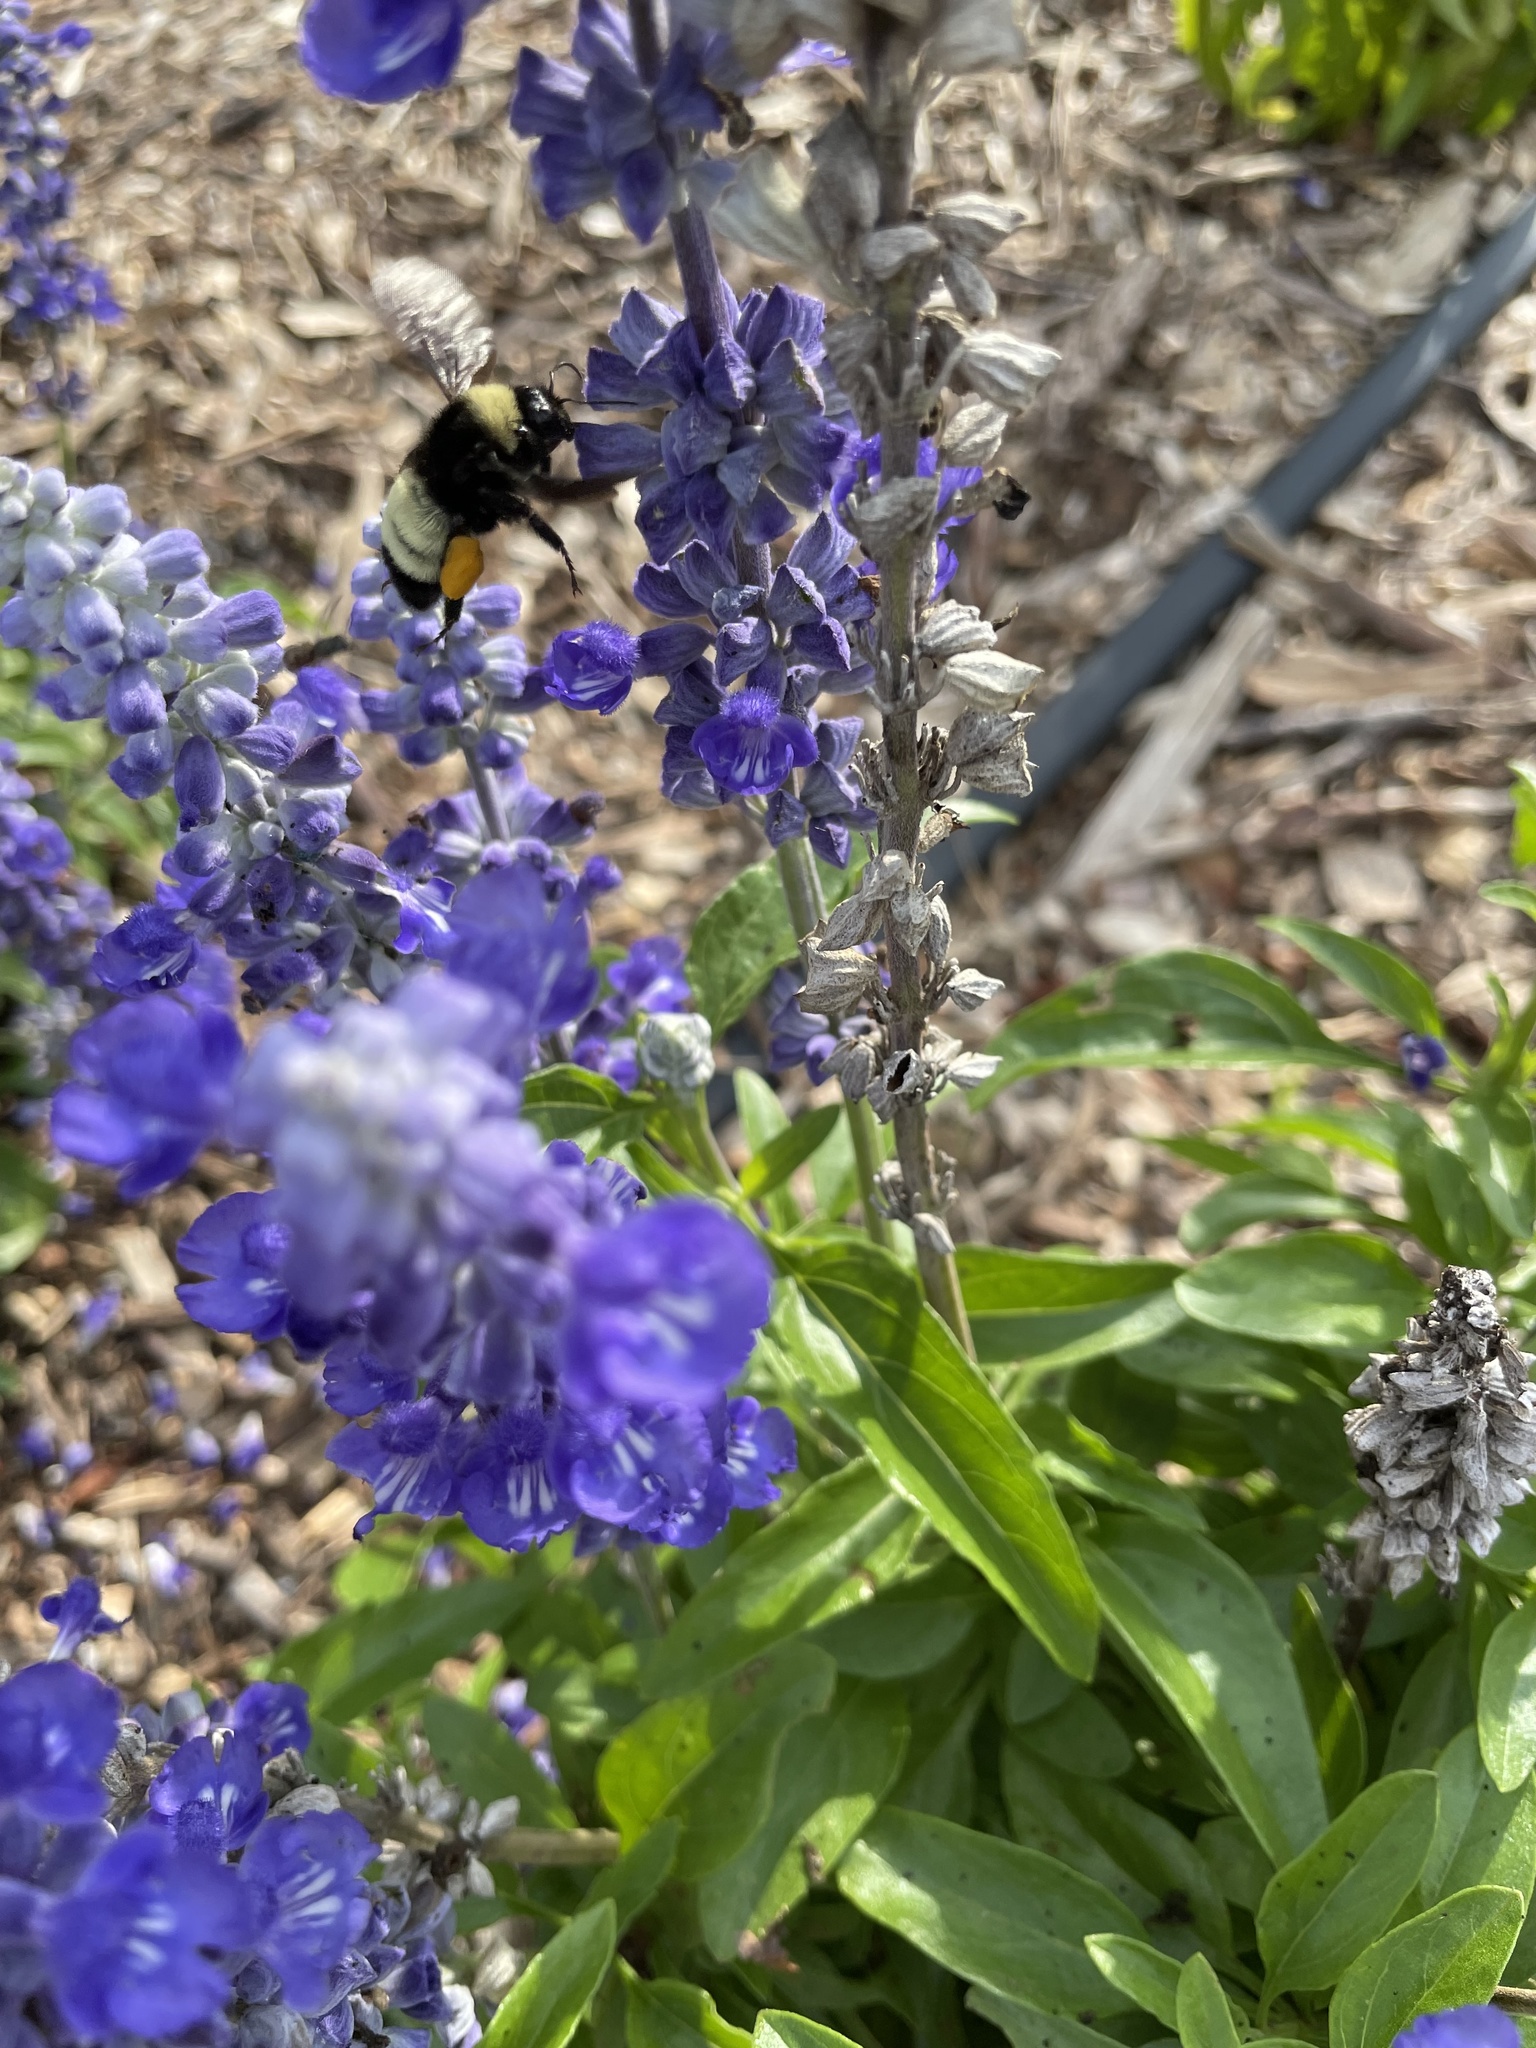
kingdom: Animalia
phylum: Arthropoda
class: Insecta
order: Hymenoptera
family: Apidae
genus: Bombus
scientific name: Bombus pensylvanicus
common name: Bumble bee
